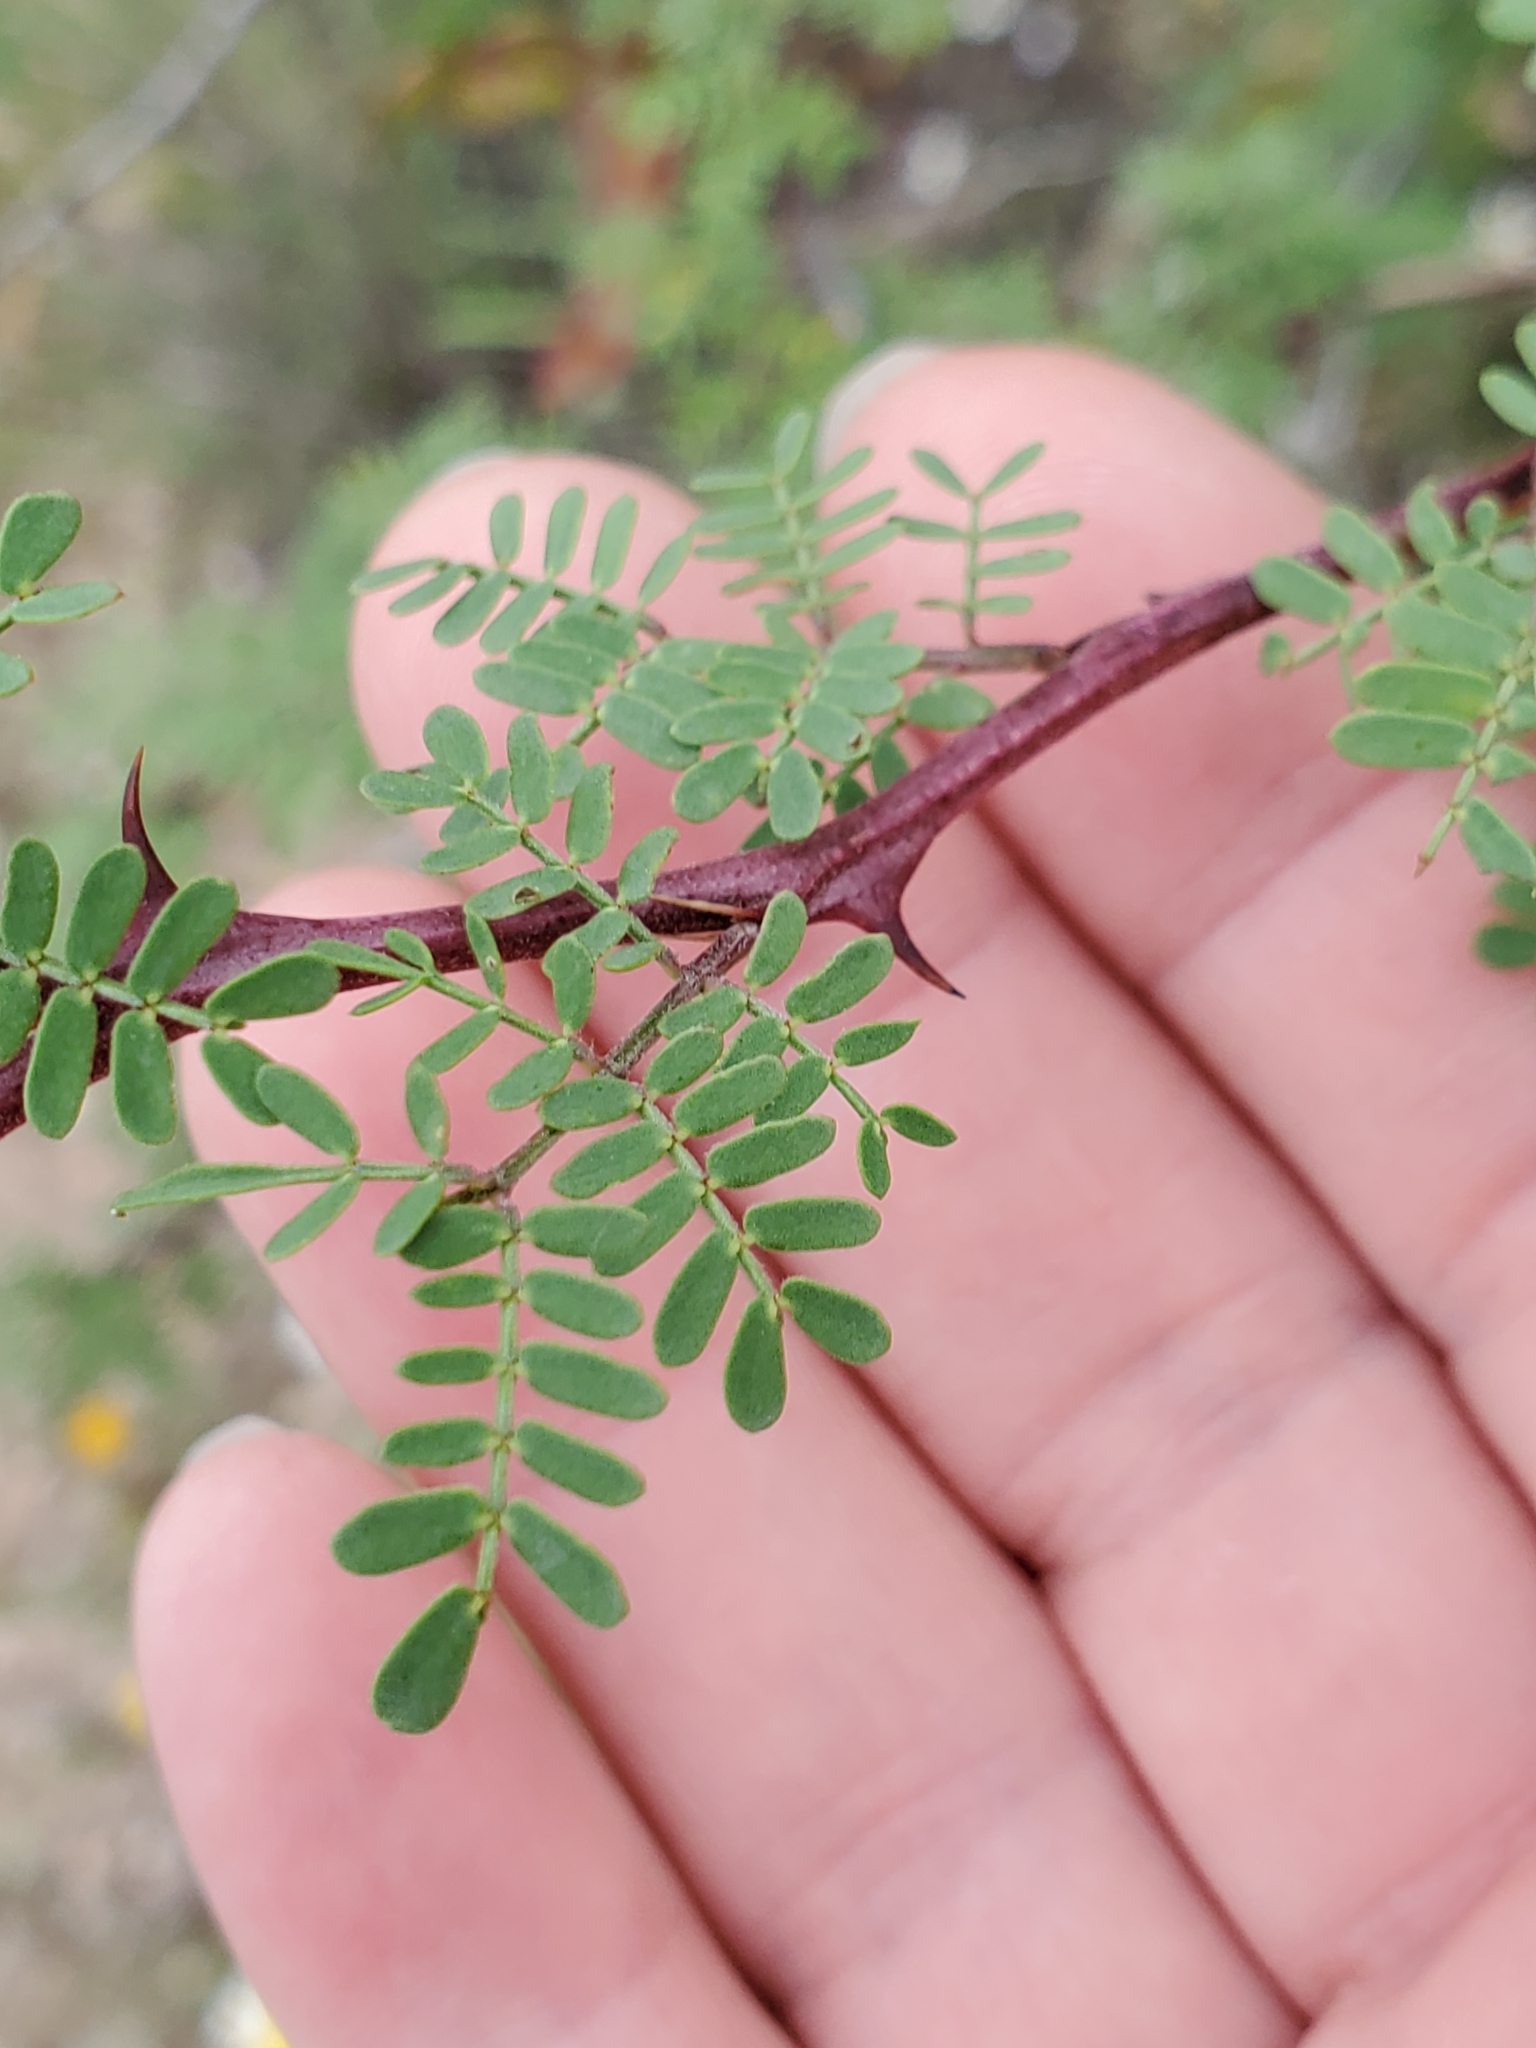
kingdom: Plantae
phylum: Tracheophyta
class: Magnoliopsida
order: Fabales
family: Fabaceae
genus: Mimosa
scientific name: Mimosa texana
